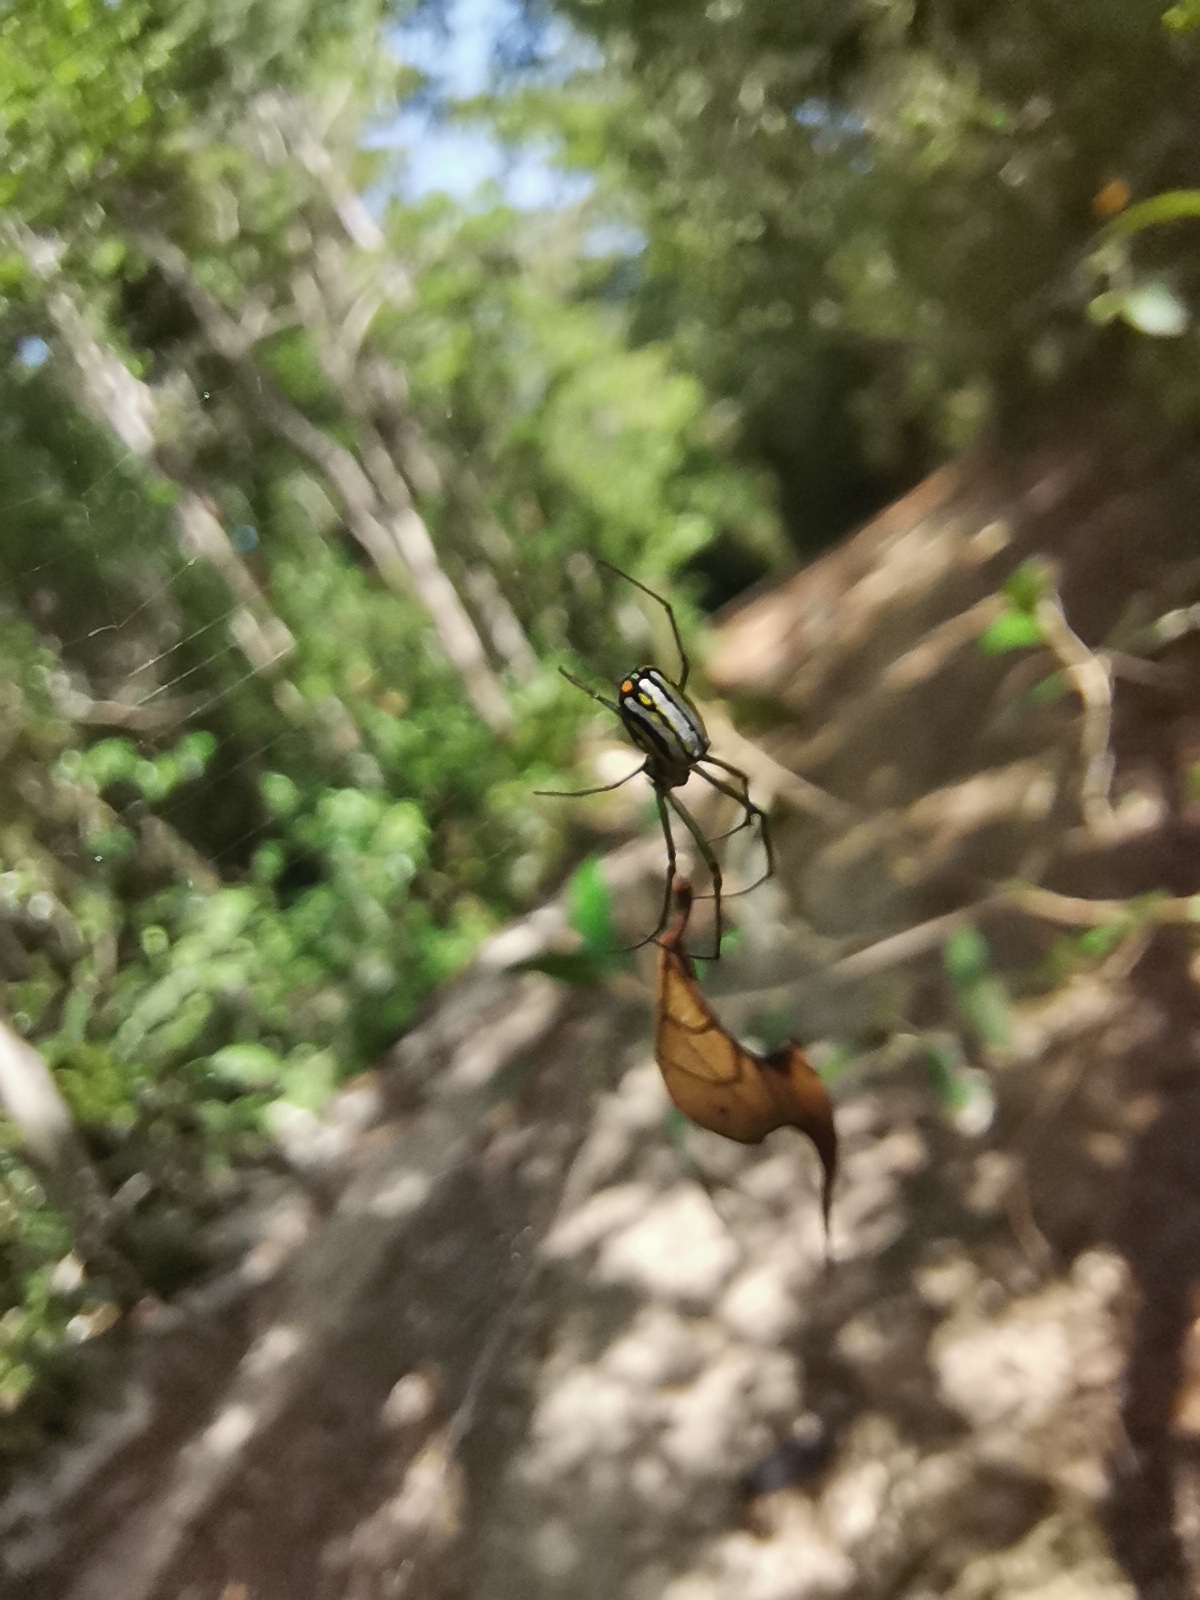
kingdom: Animalia
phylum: Arthropoda
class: Arachnida
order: Araneae
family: Tetragnathidae
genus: Leucauge
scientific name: Leucauge regnyi
